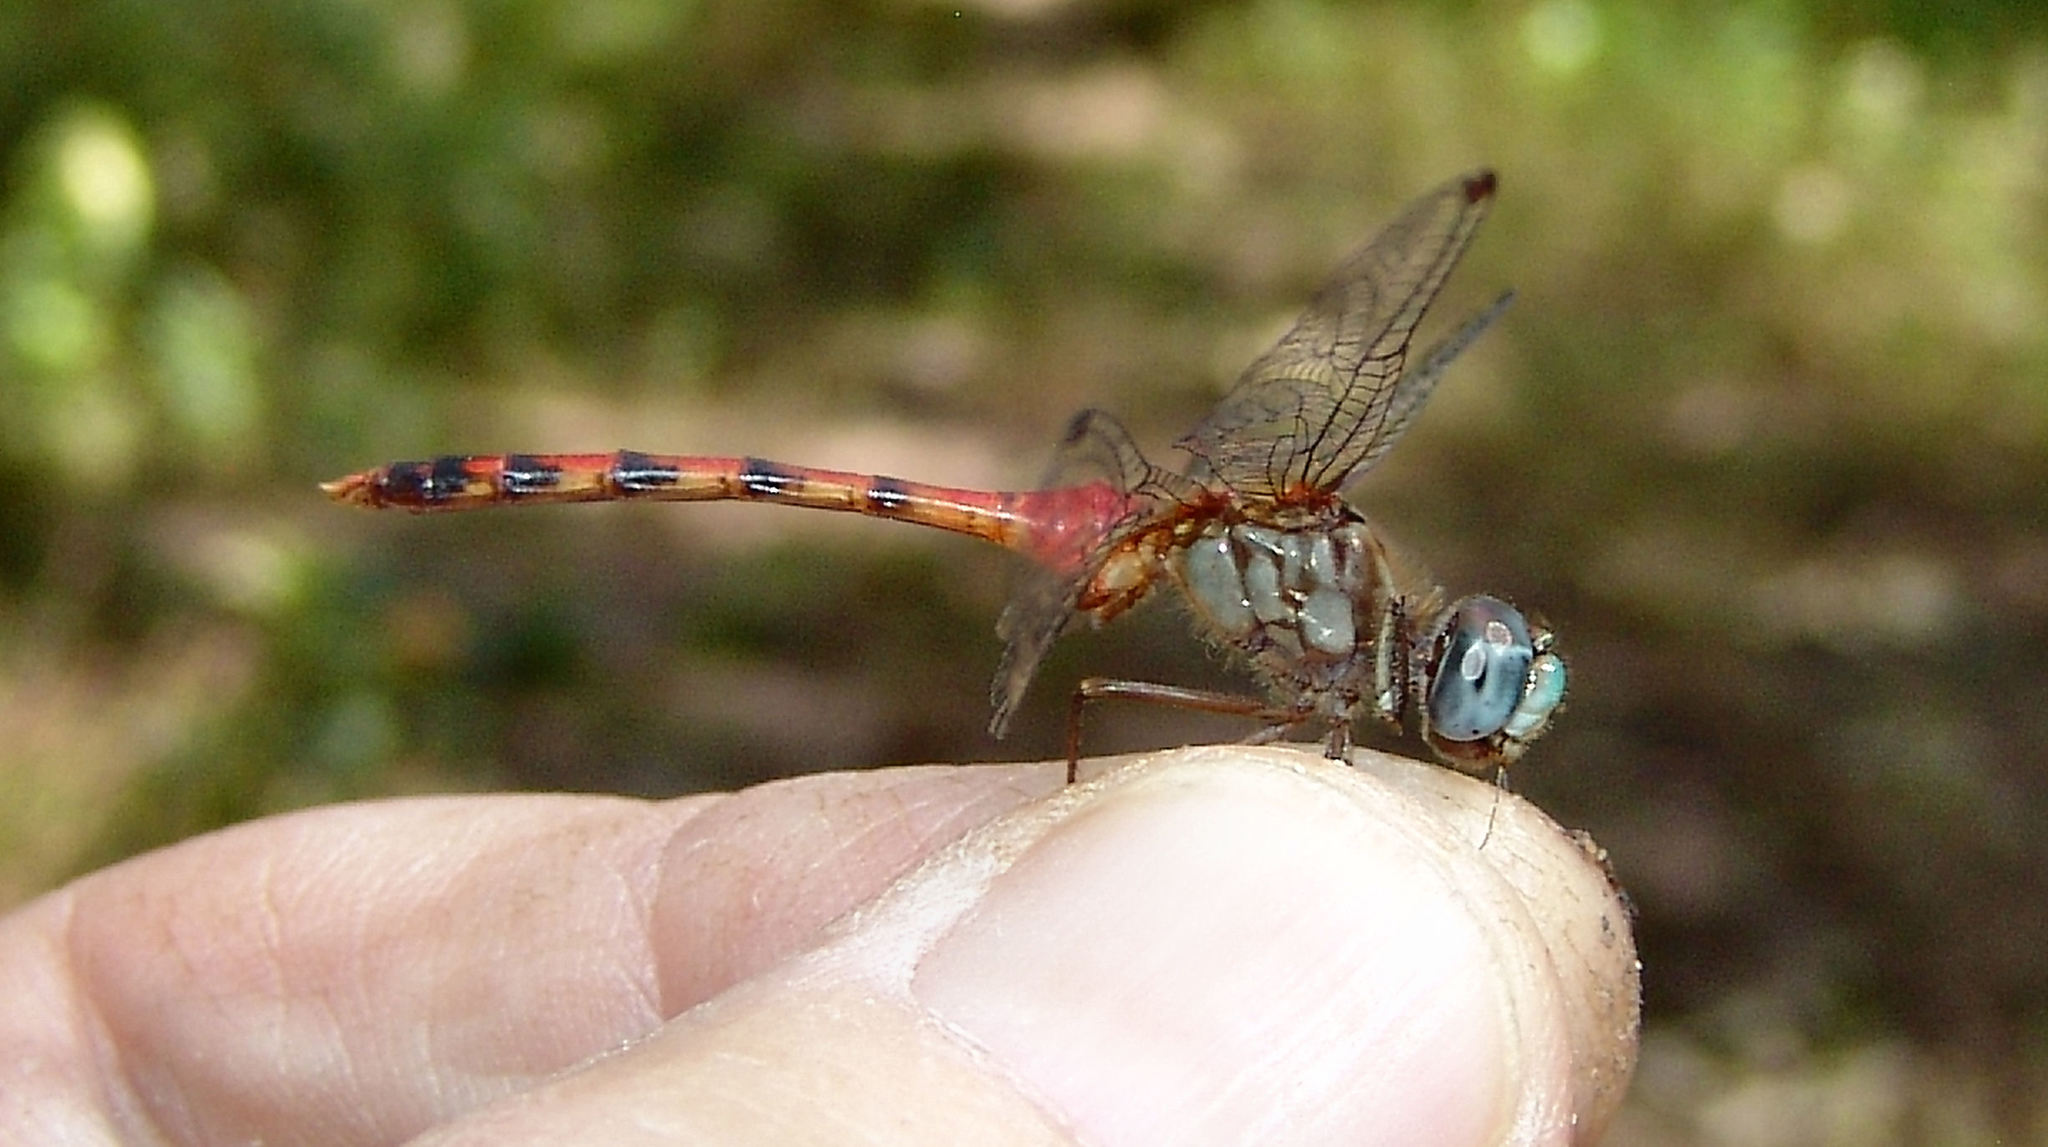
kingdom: Animalia
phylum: Arthropoda
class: Insecta
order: Odonata
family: Libellulidae
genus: Sympetrum
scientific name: Sympetrum ambiguum
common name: Blue-faced meadowhawk
